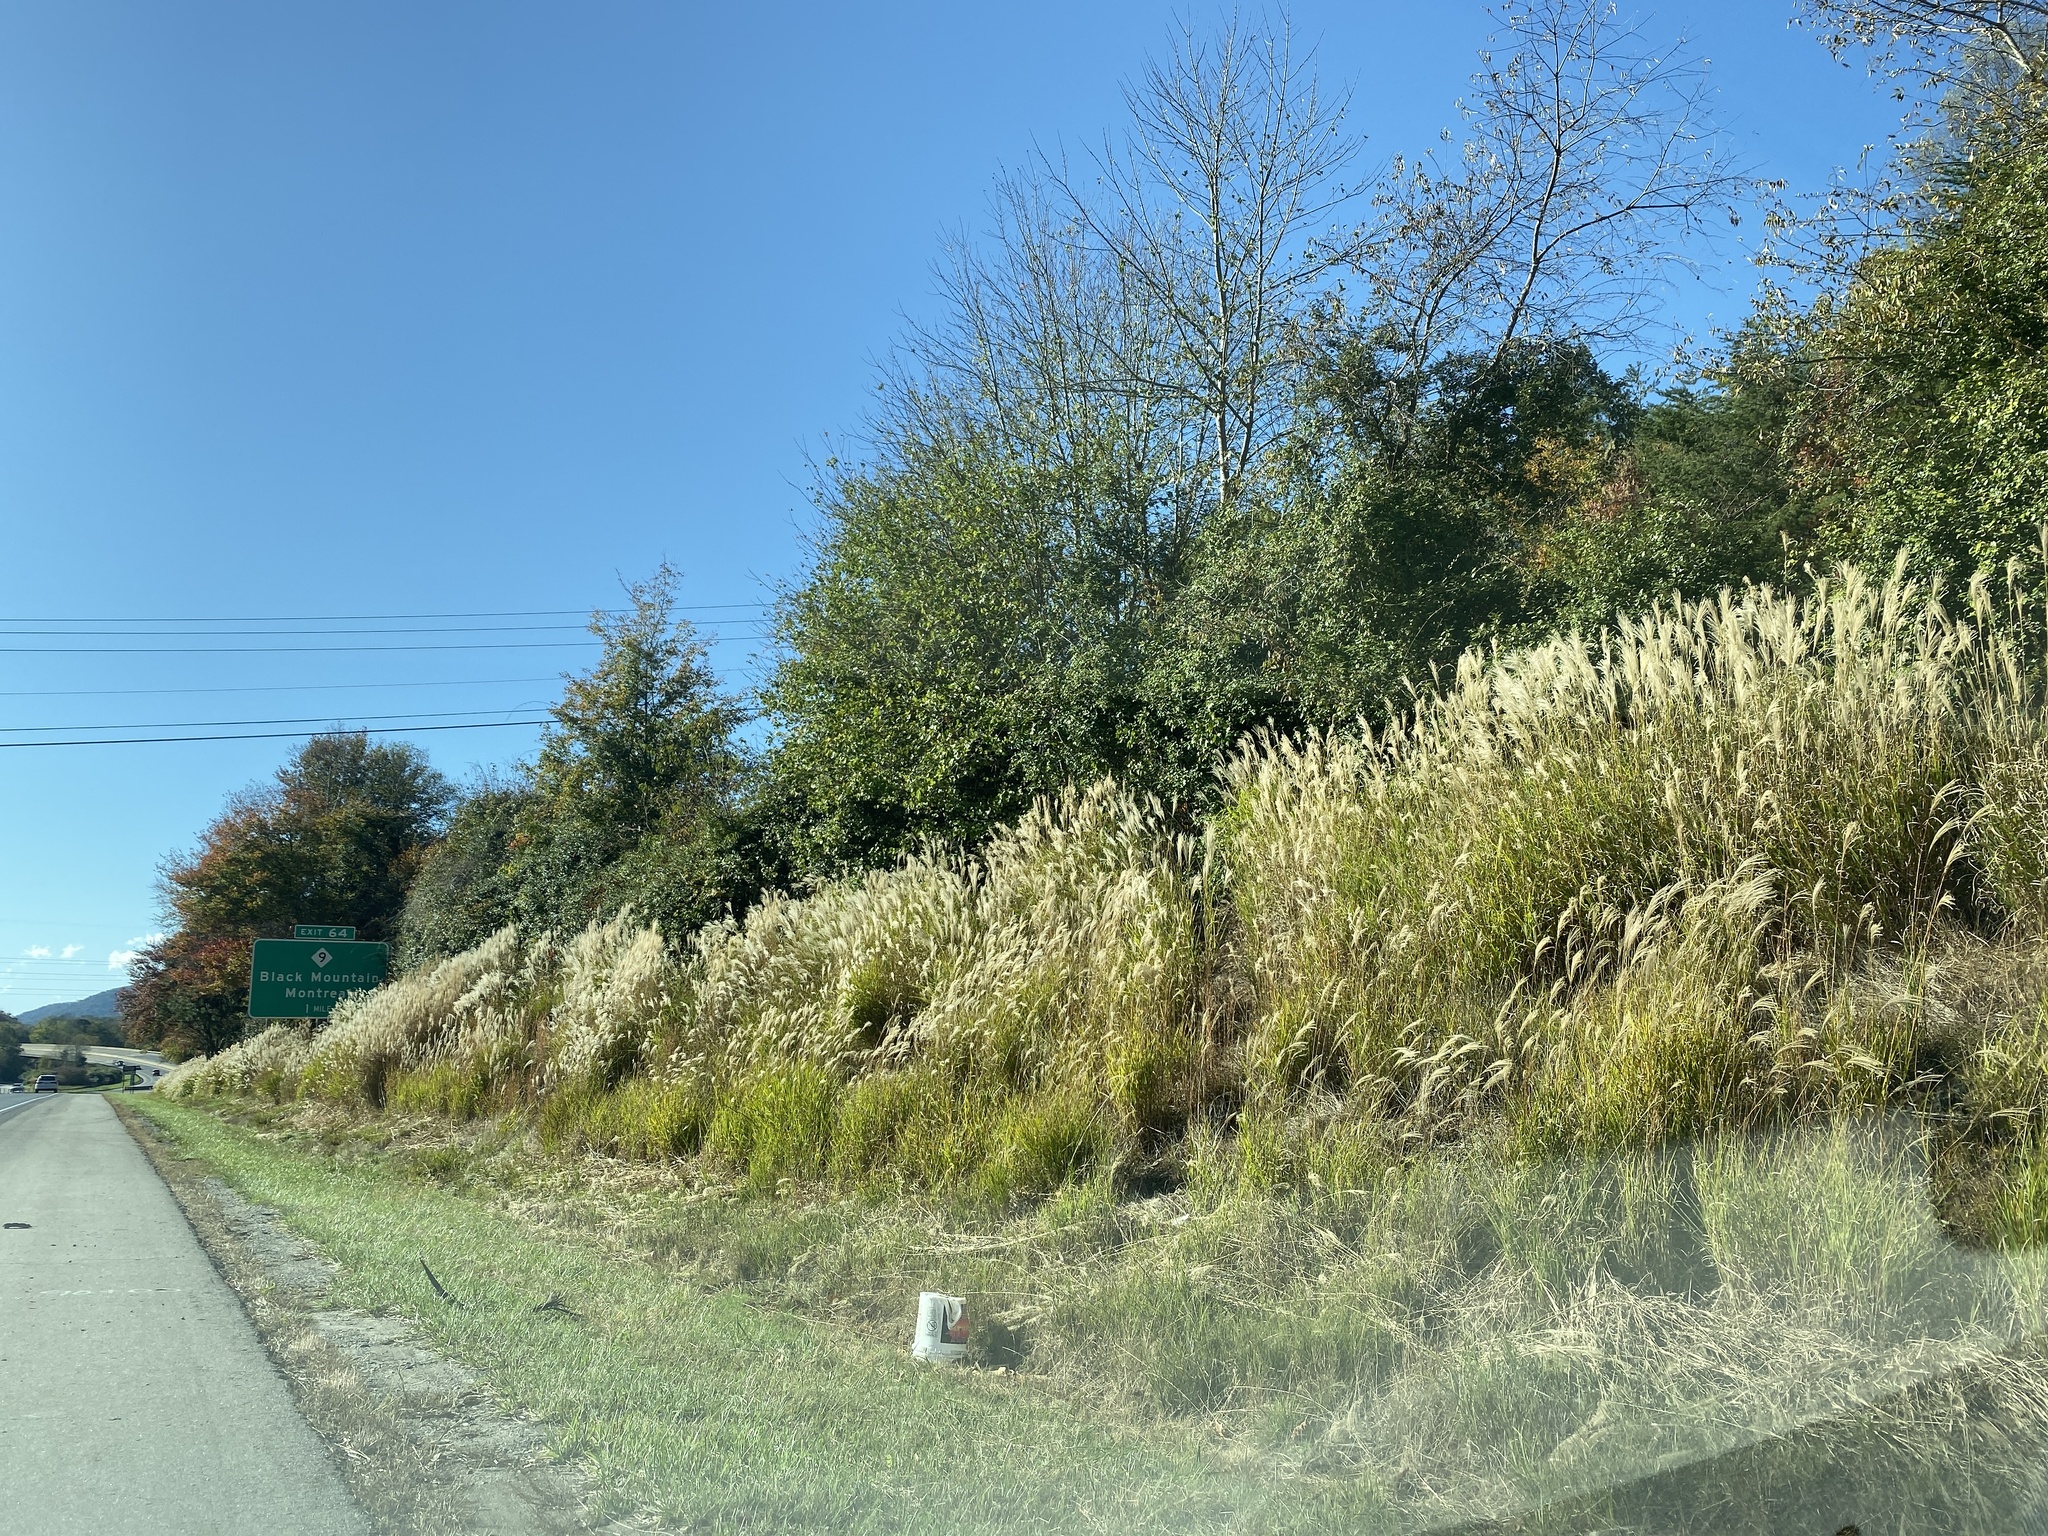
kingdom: Plantae
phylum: Tracheophyta
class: Liliopsida
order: Poales
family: Poaceae
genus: Miscanthus
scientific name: Miscanthus sinensis
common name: Chinese silvergrass
